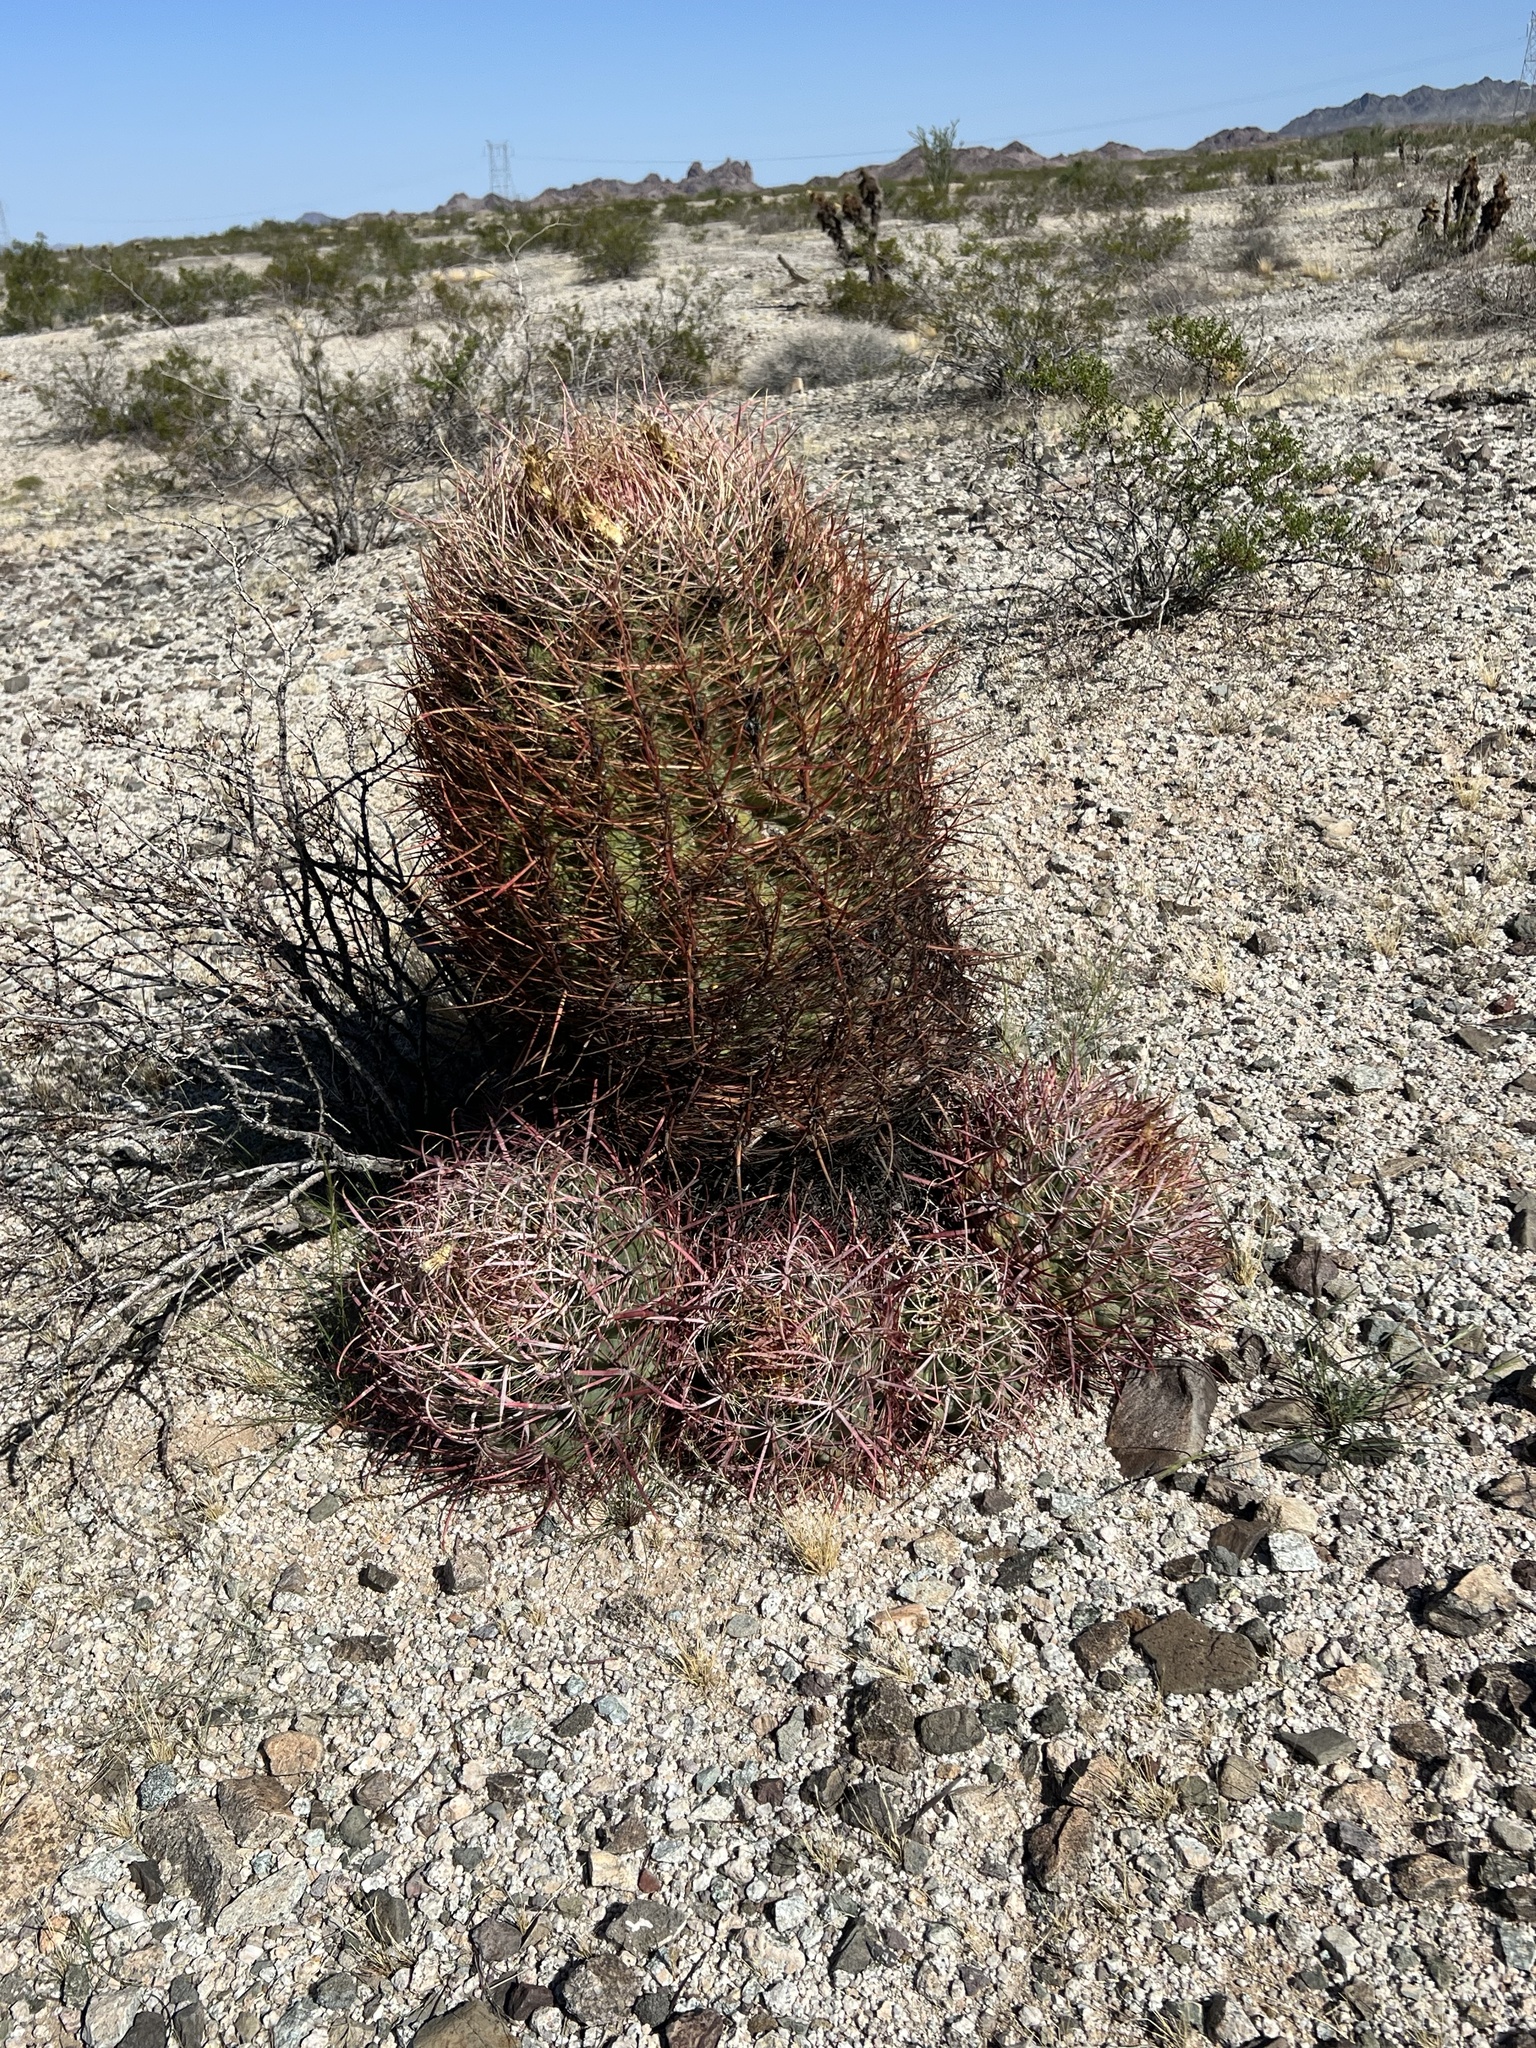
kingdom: Plantae
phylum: Tracheophyta
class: Magnoliopsida
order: Caryophyllales
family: Cactaceae
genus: Ferocactus
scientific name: Ferocactus cylindraceus
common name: California barrel cactus
